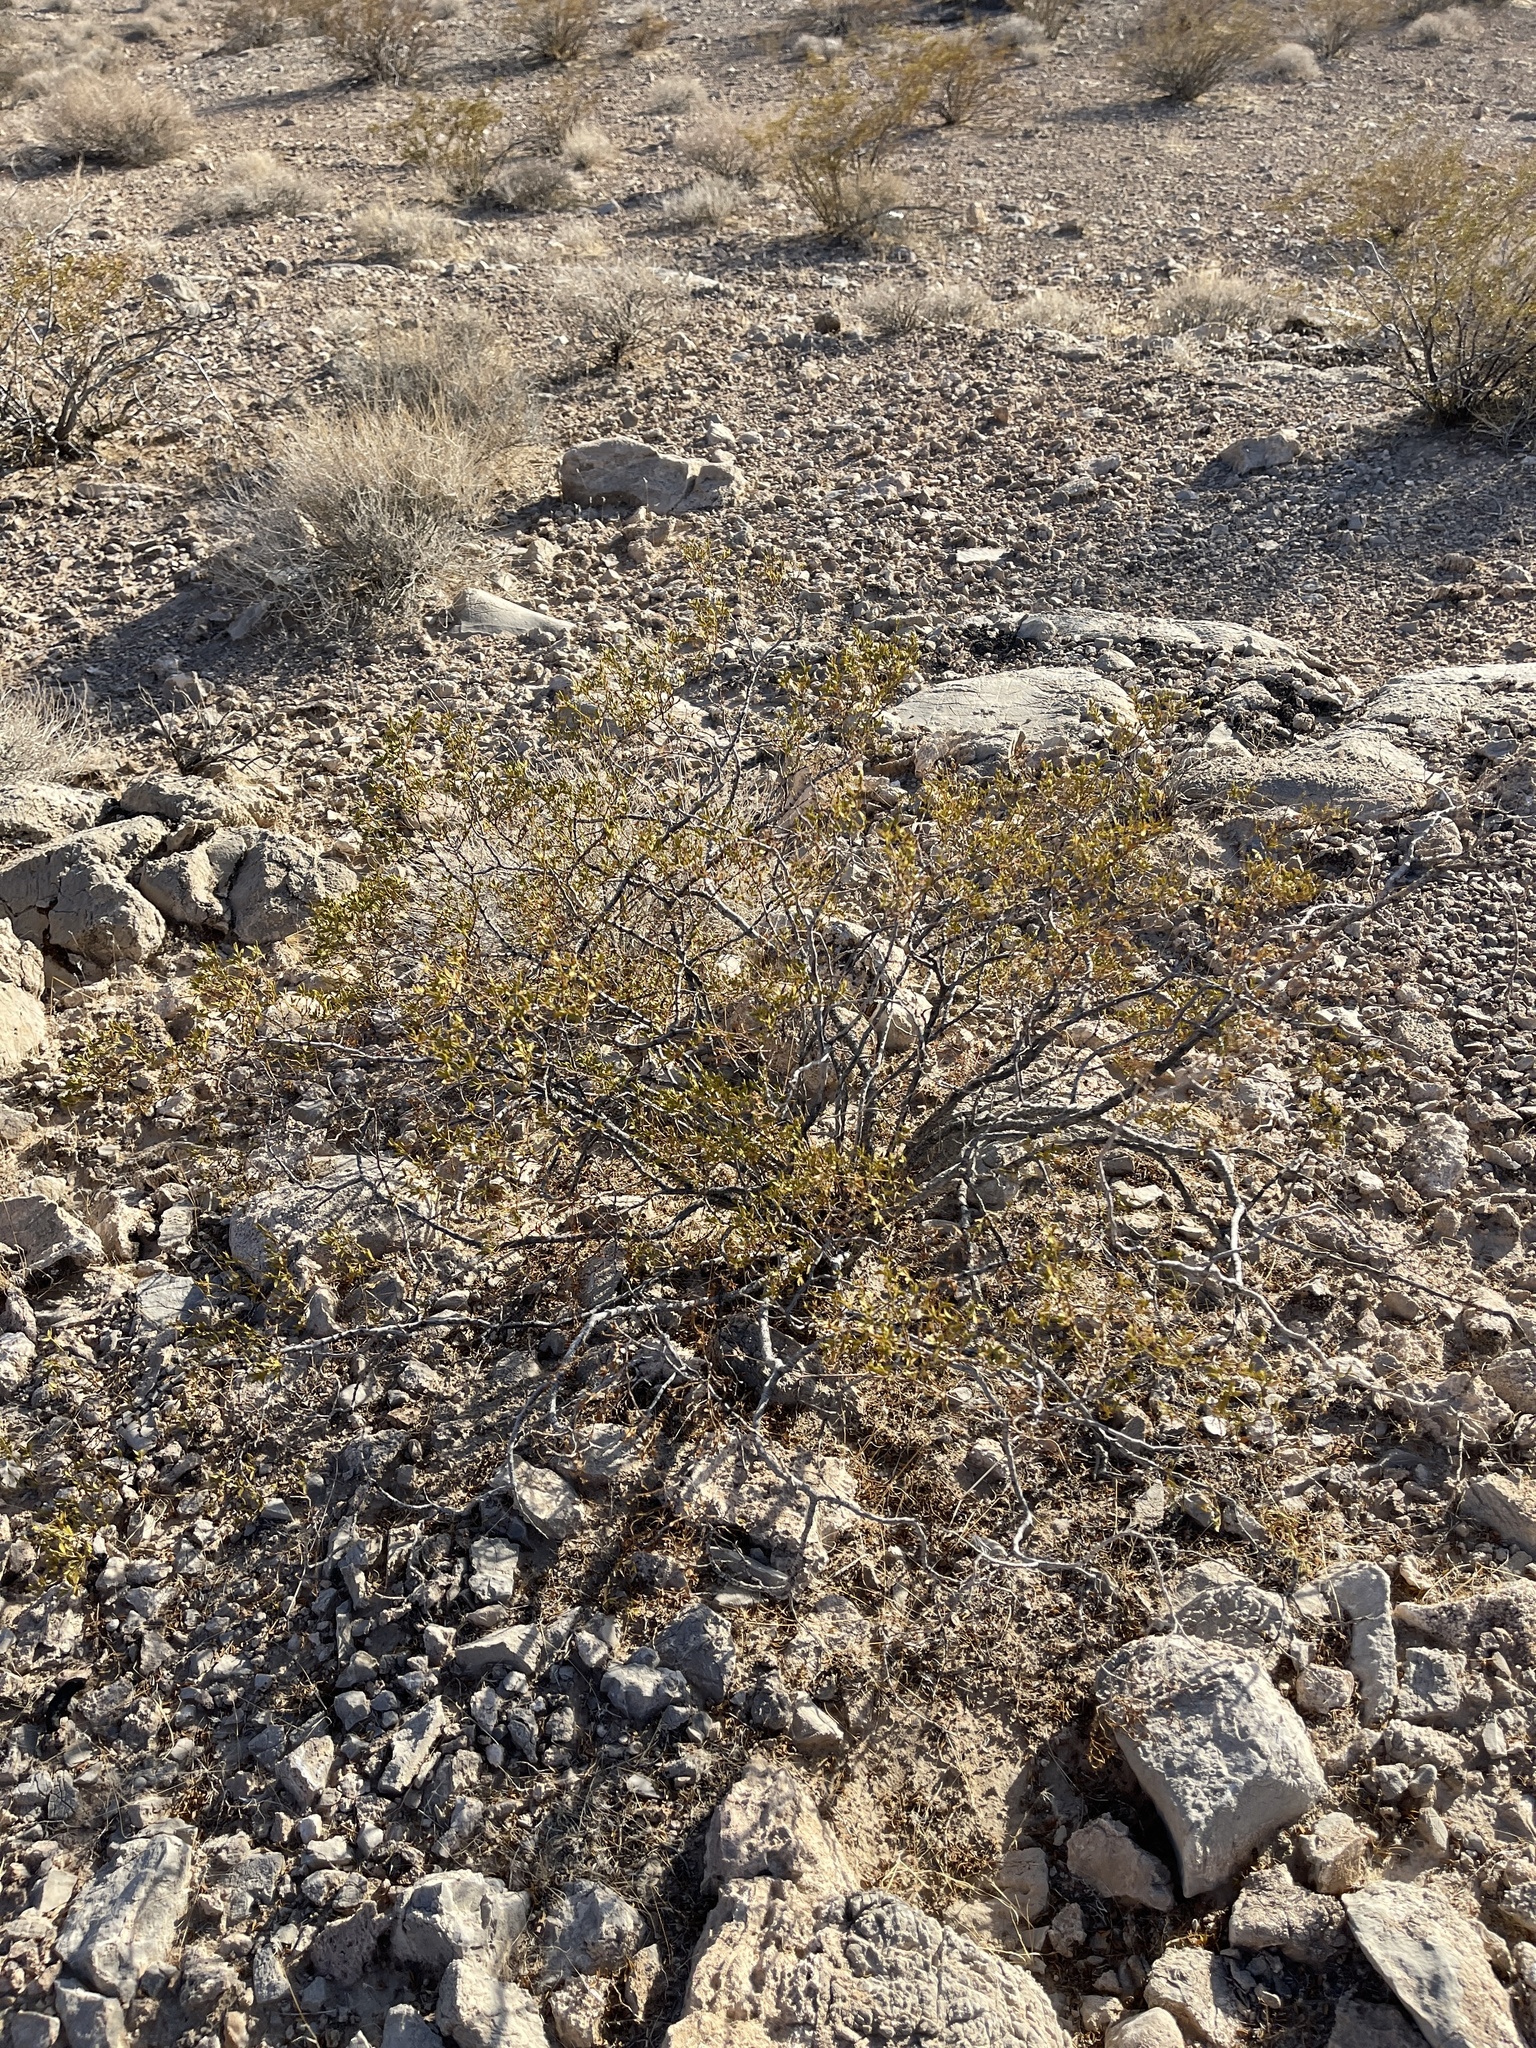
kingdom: Plantae
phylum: Tracheophyta
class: Magnoliopsida
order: Zygophyllales
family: Zygophyllaceae
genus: Larrea
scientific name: Larrea tridentata
